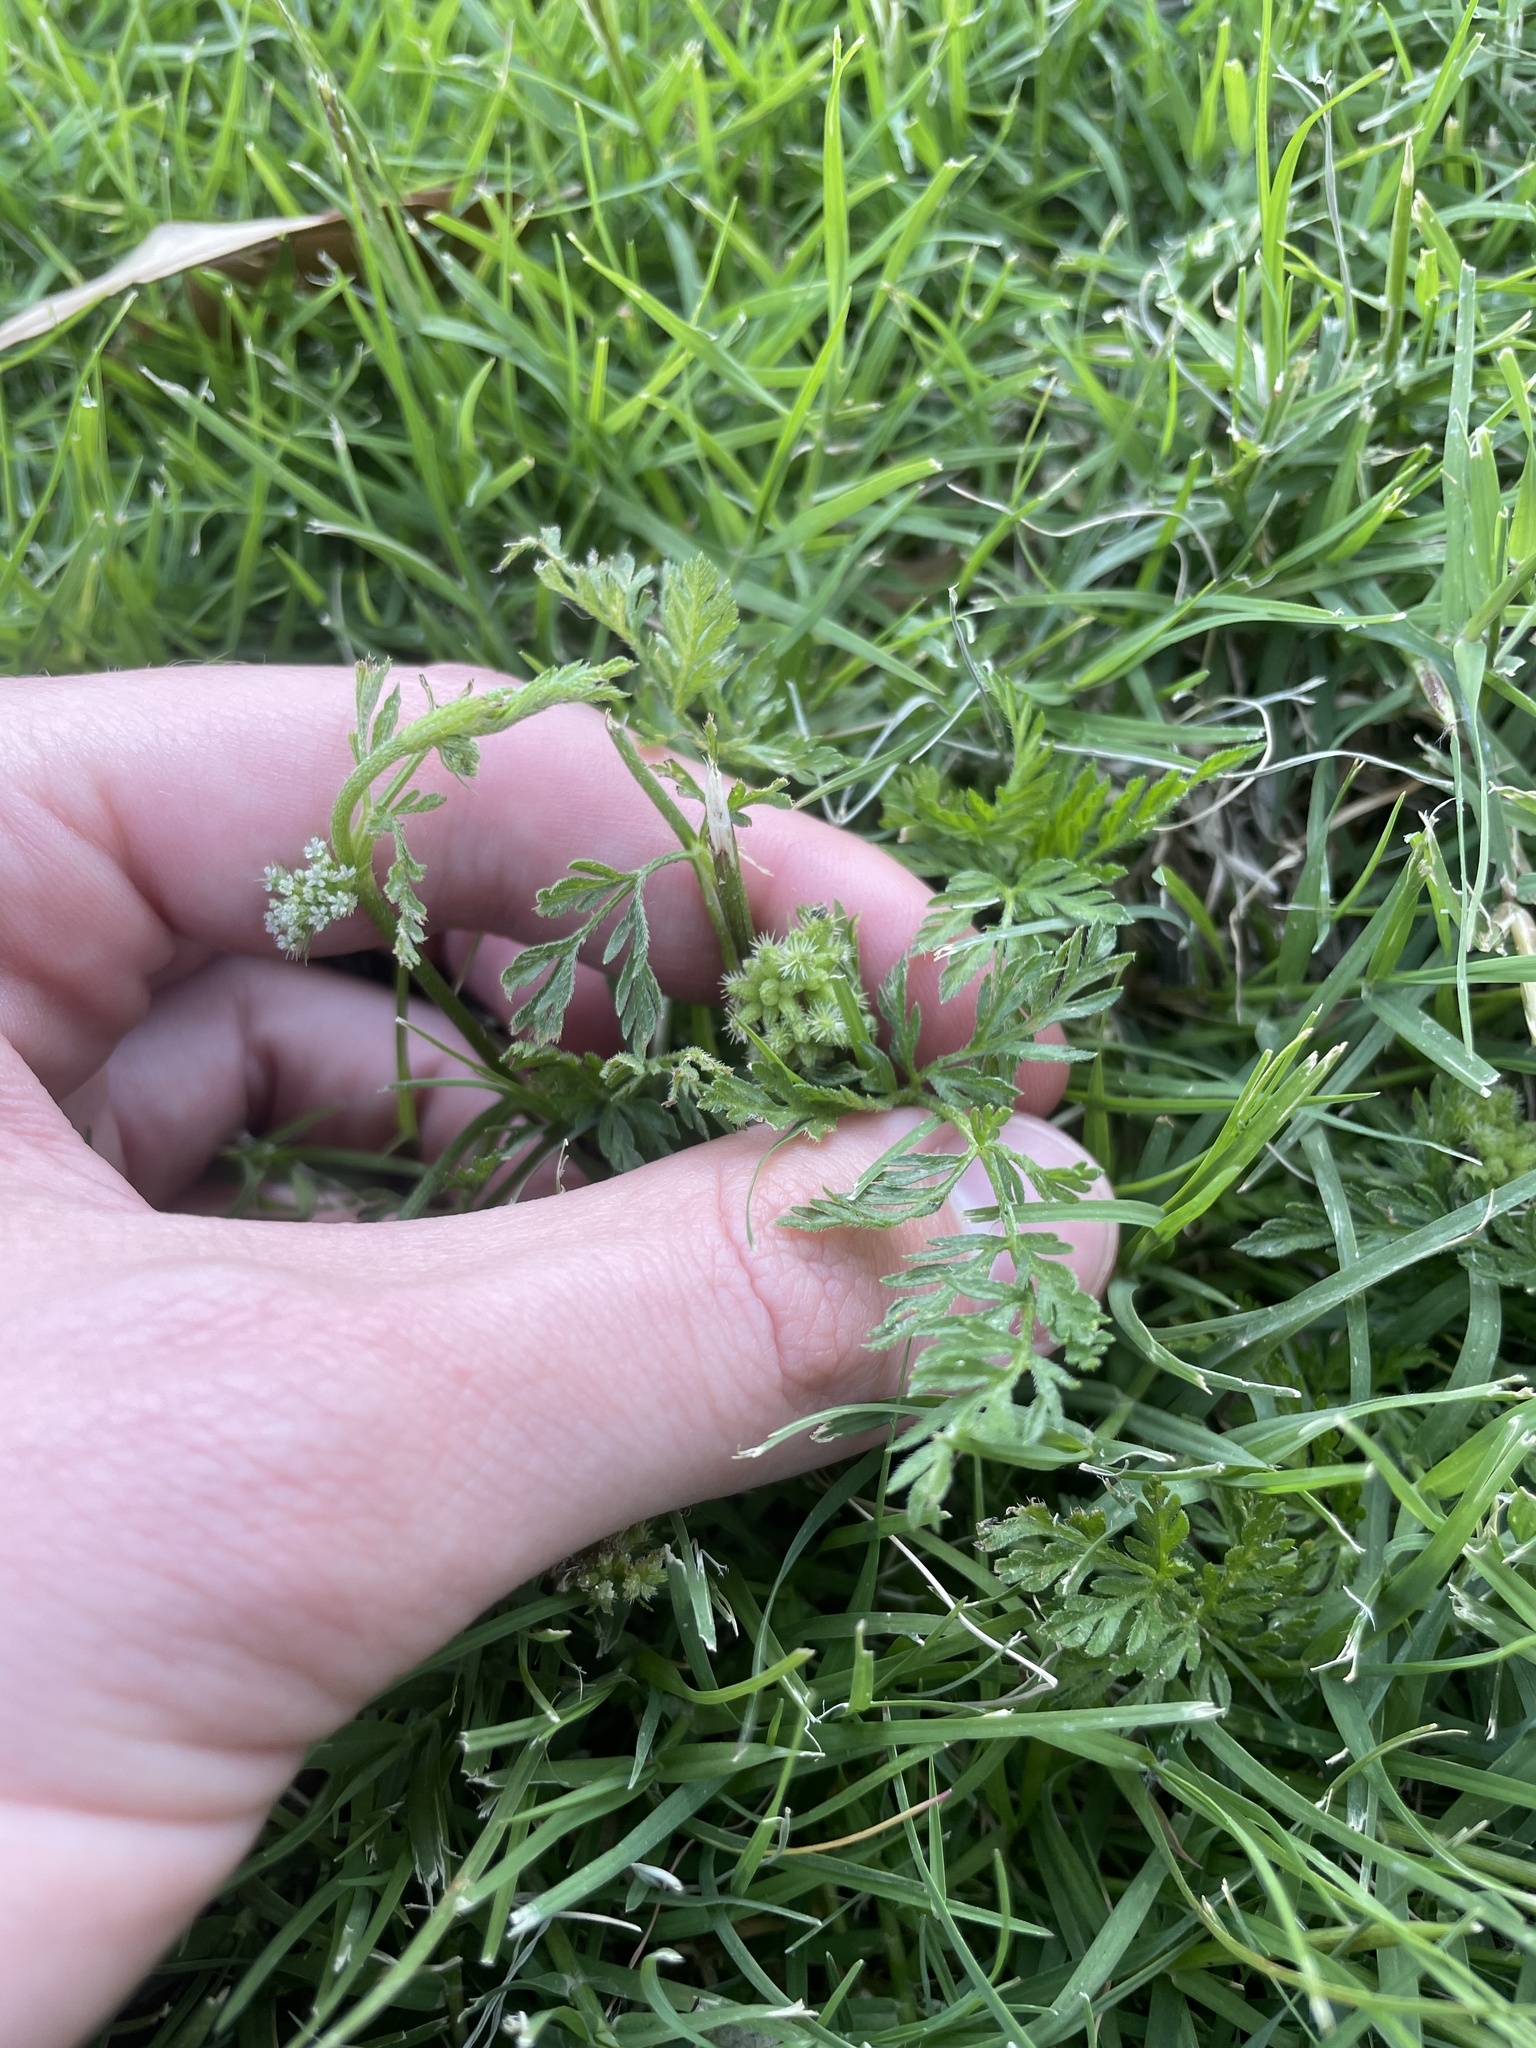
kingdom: Plantae
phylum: Tracheophyta
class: Magnoliopsida
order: Apiales
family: Apiaceae
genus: Torilis
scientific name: Torilis nodosa
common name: Knotted hedge-parsley
